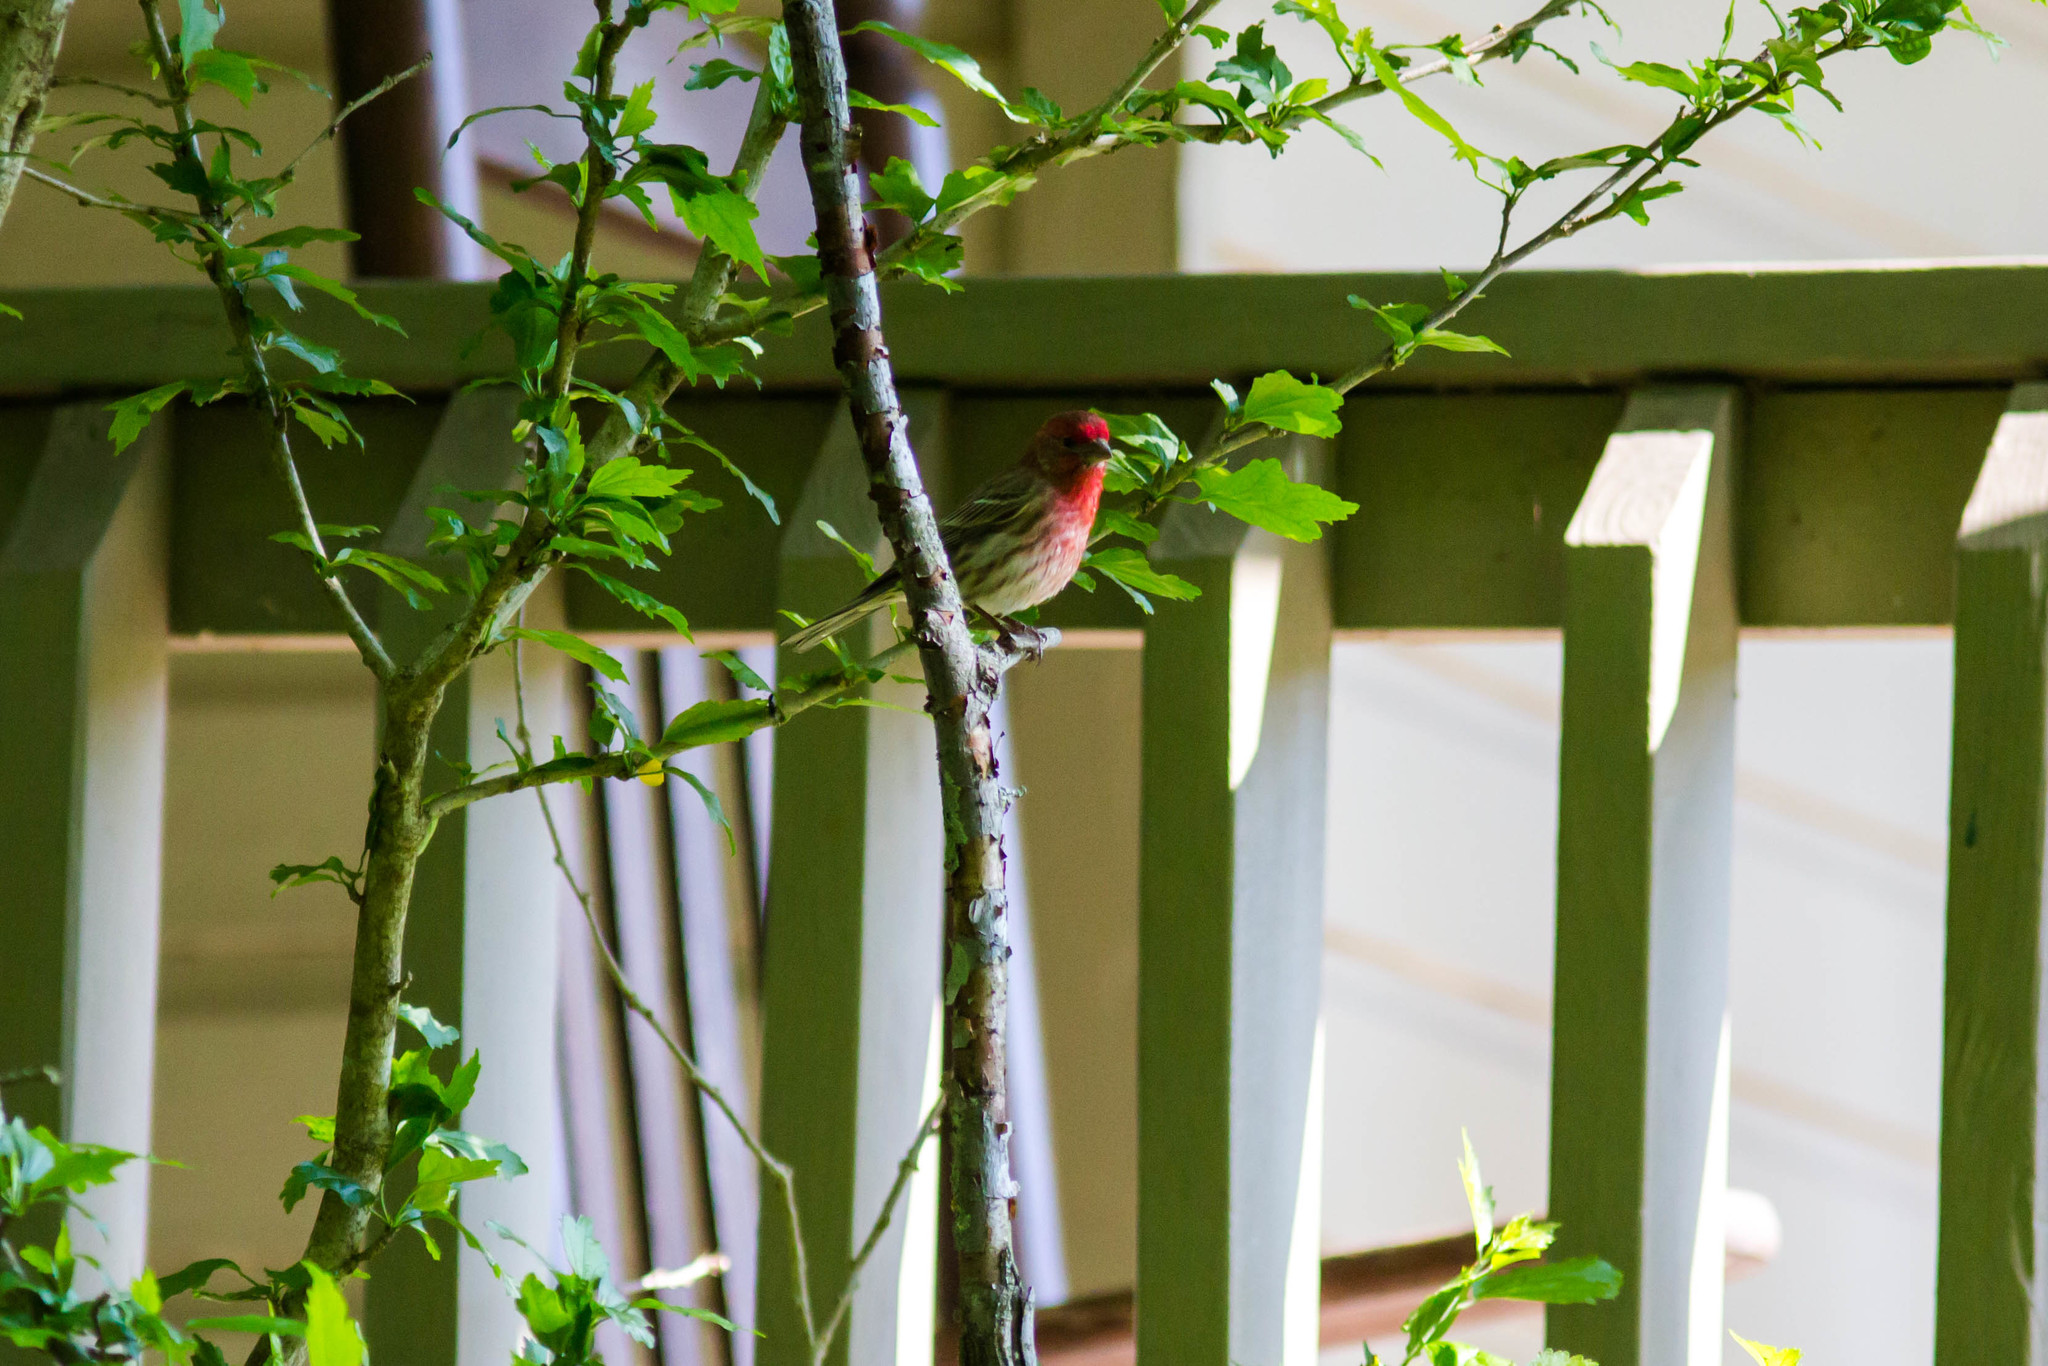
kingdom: Animalia
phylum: Chordata
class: Aves
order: Passeriformes
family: Fringillidae
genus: Haemorhous
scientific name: Haemorhous mexicanus
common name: House finch
